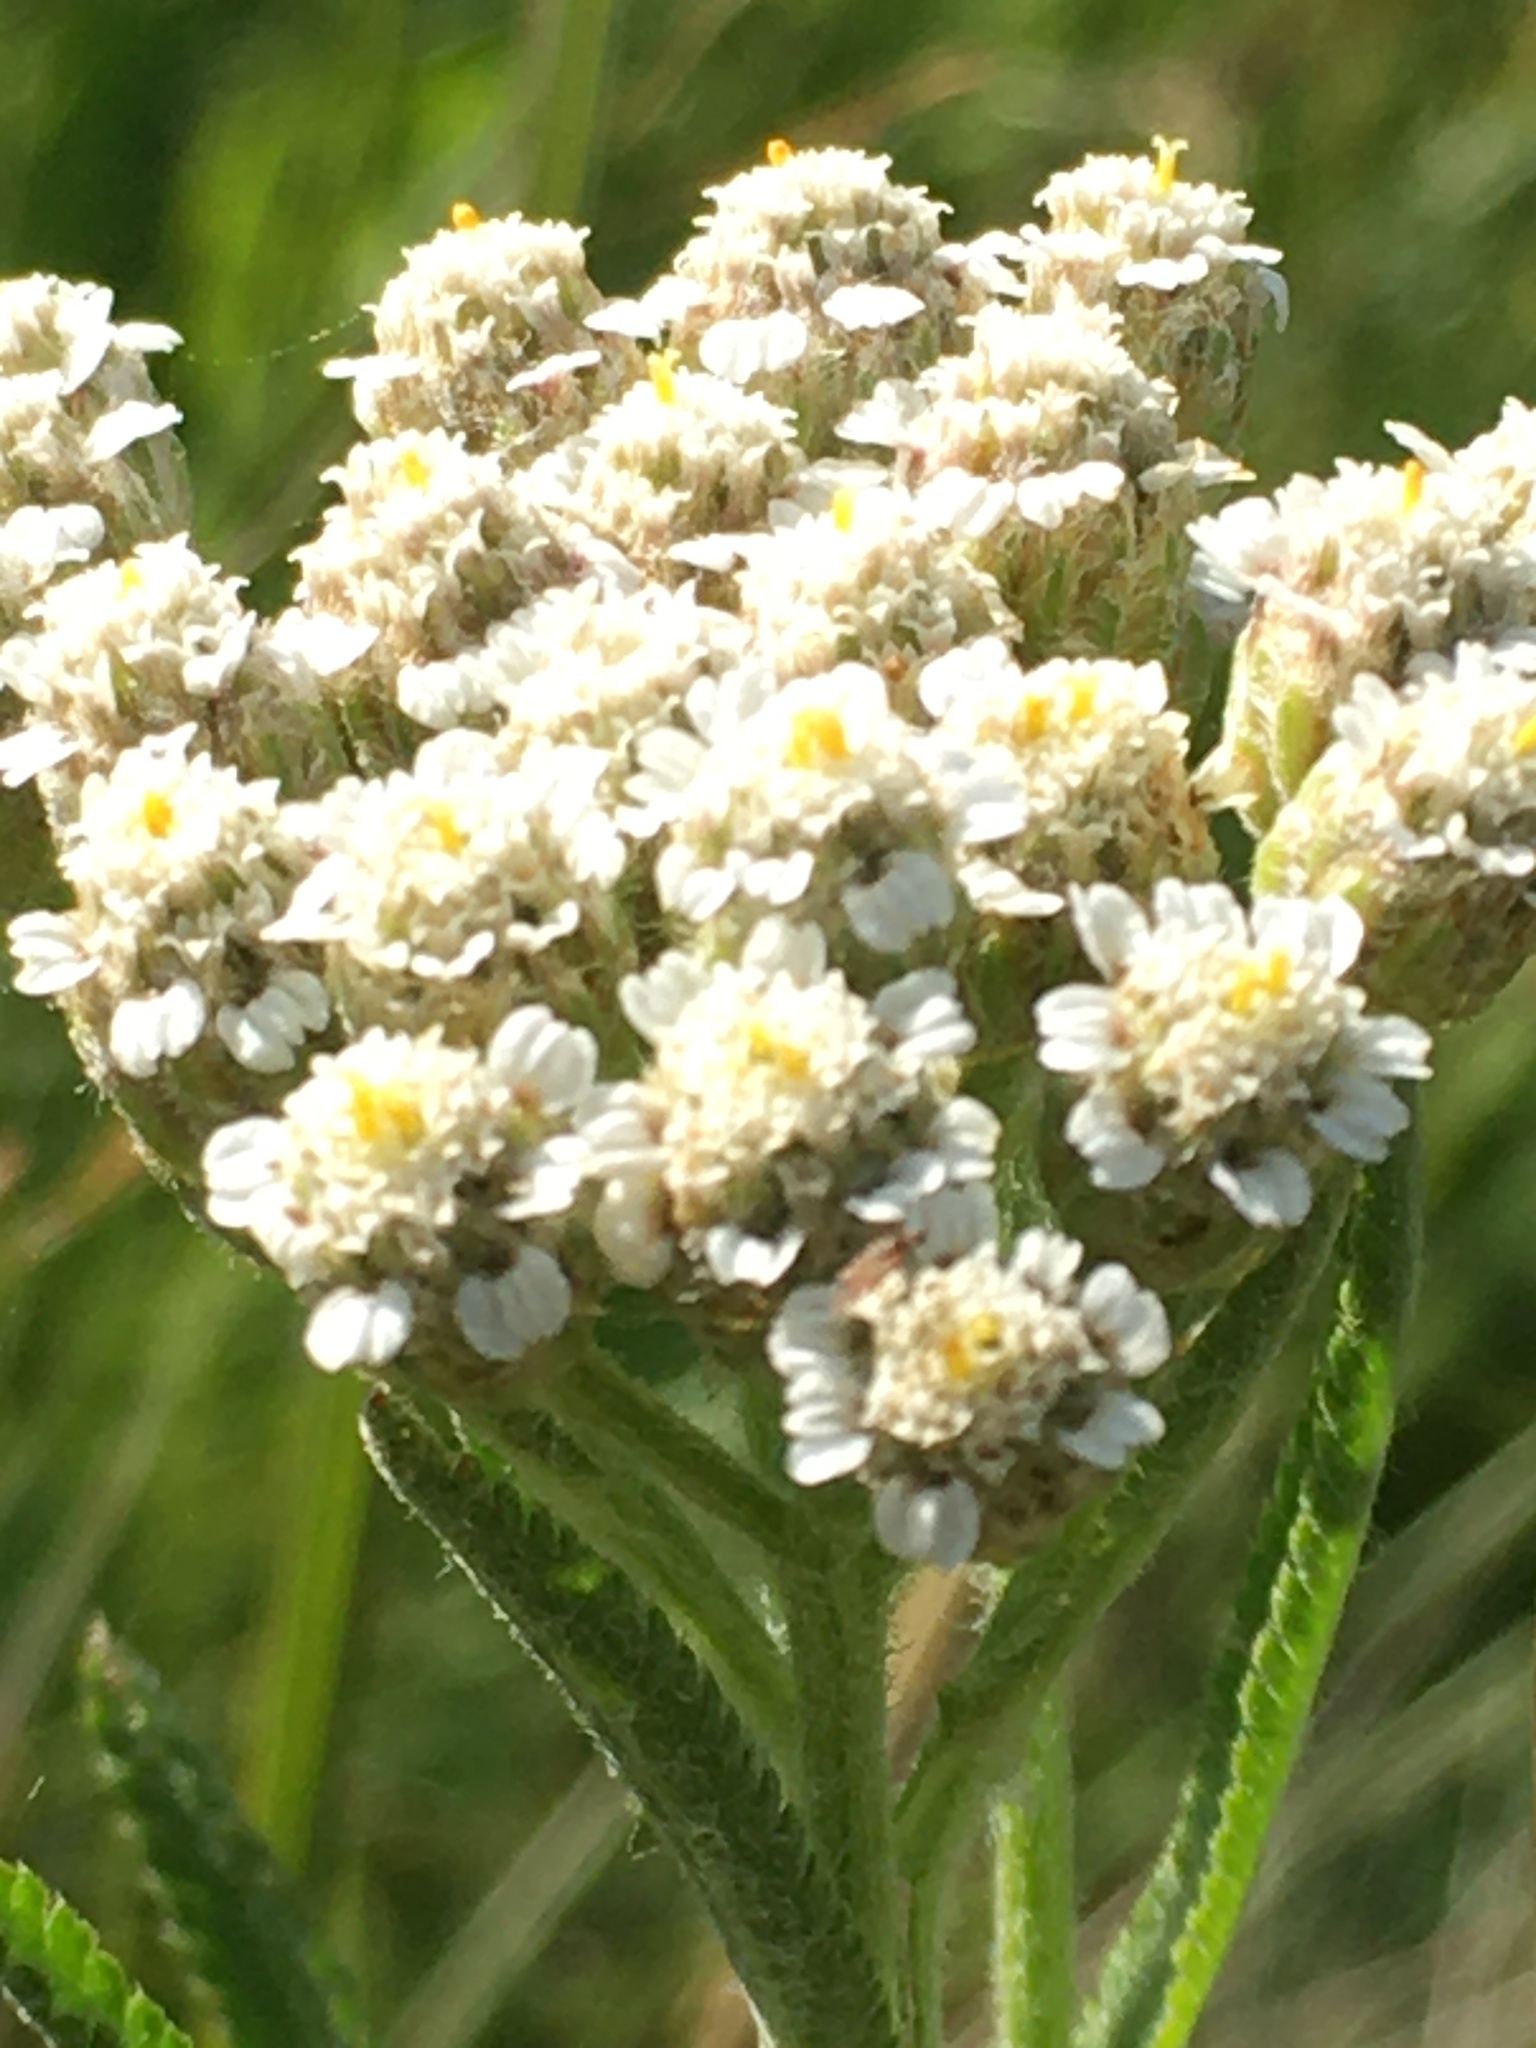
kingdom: Plantae
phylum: Tracheophyta
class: Magnoliopsida
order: Asterales
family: Asteraceae
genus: Achillea
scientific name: Achillea alpina
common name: Siberian yarrow
